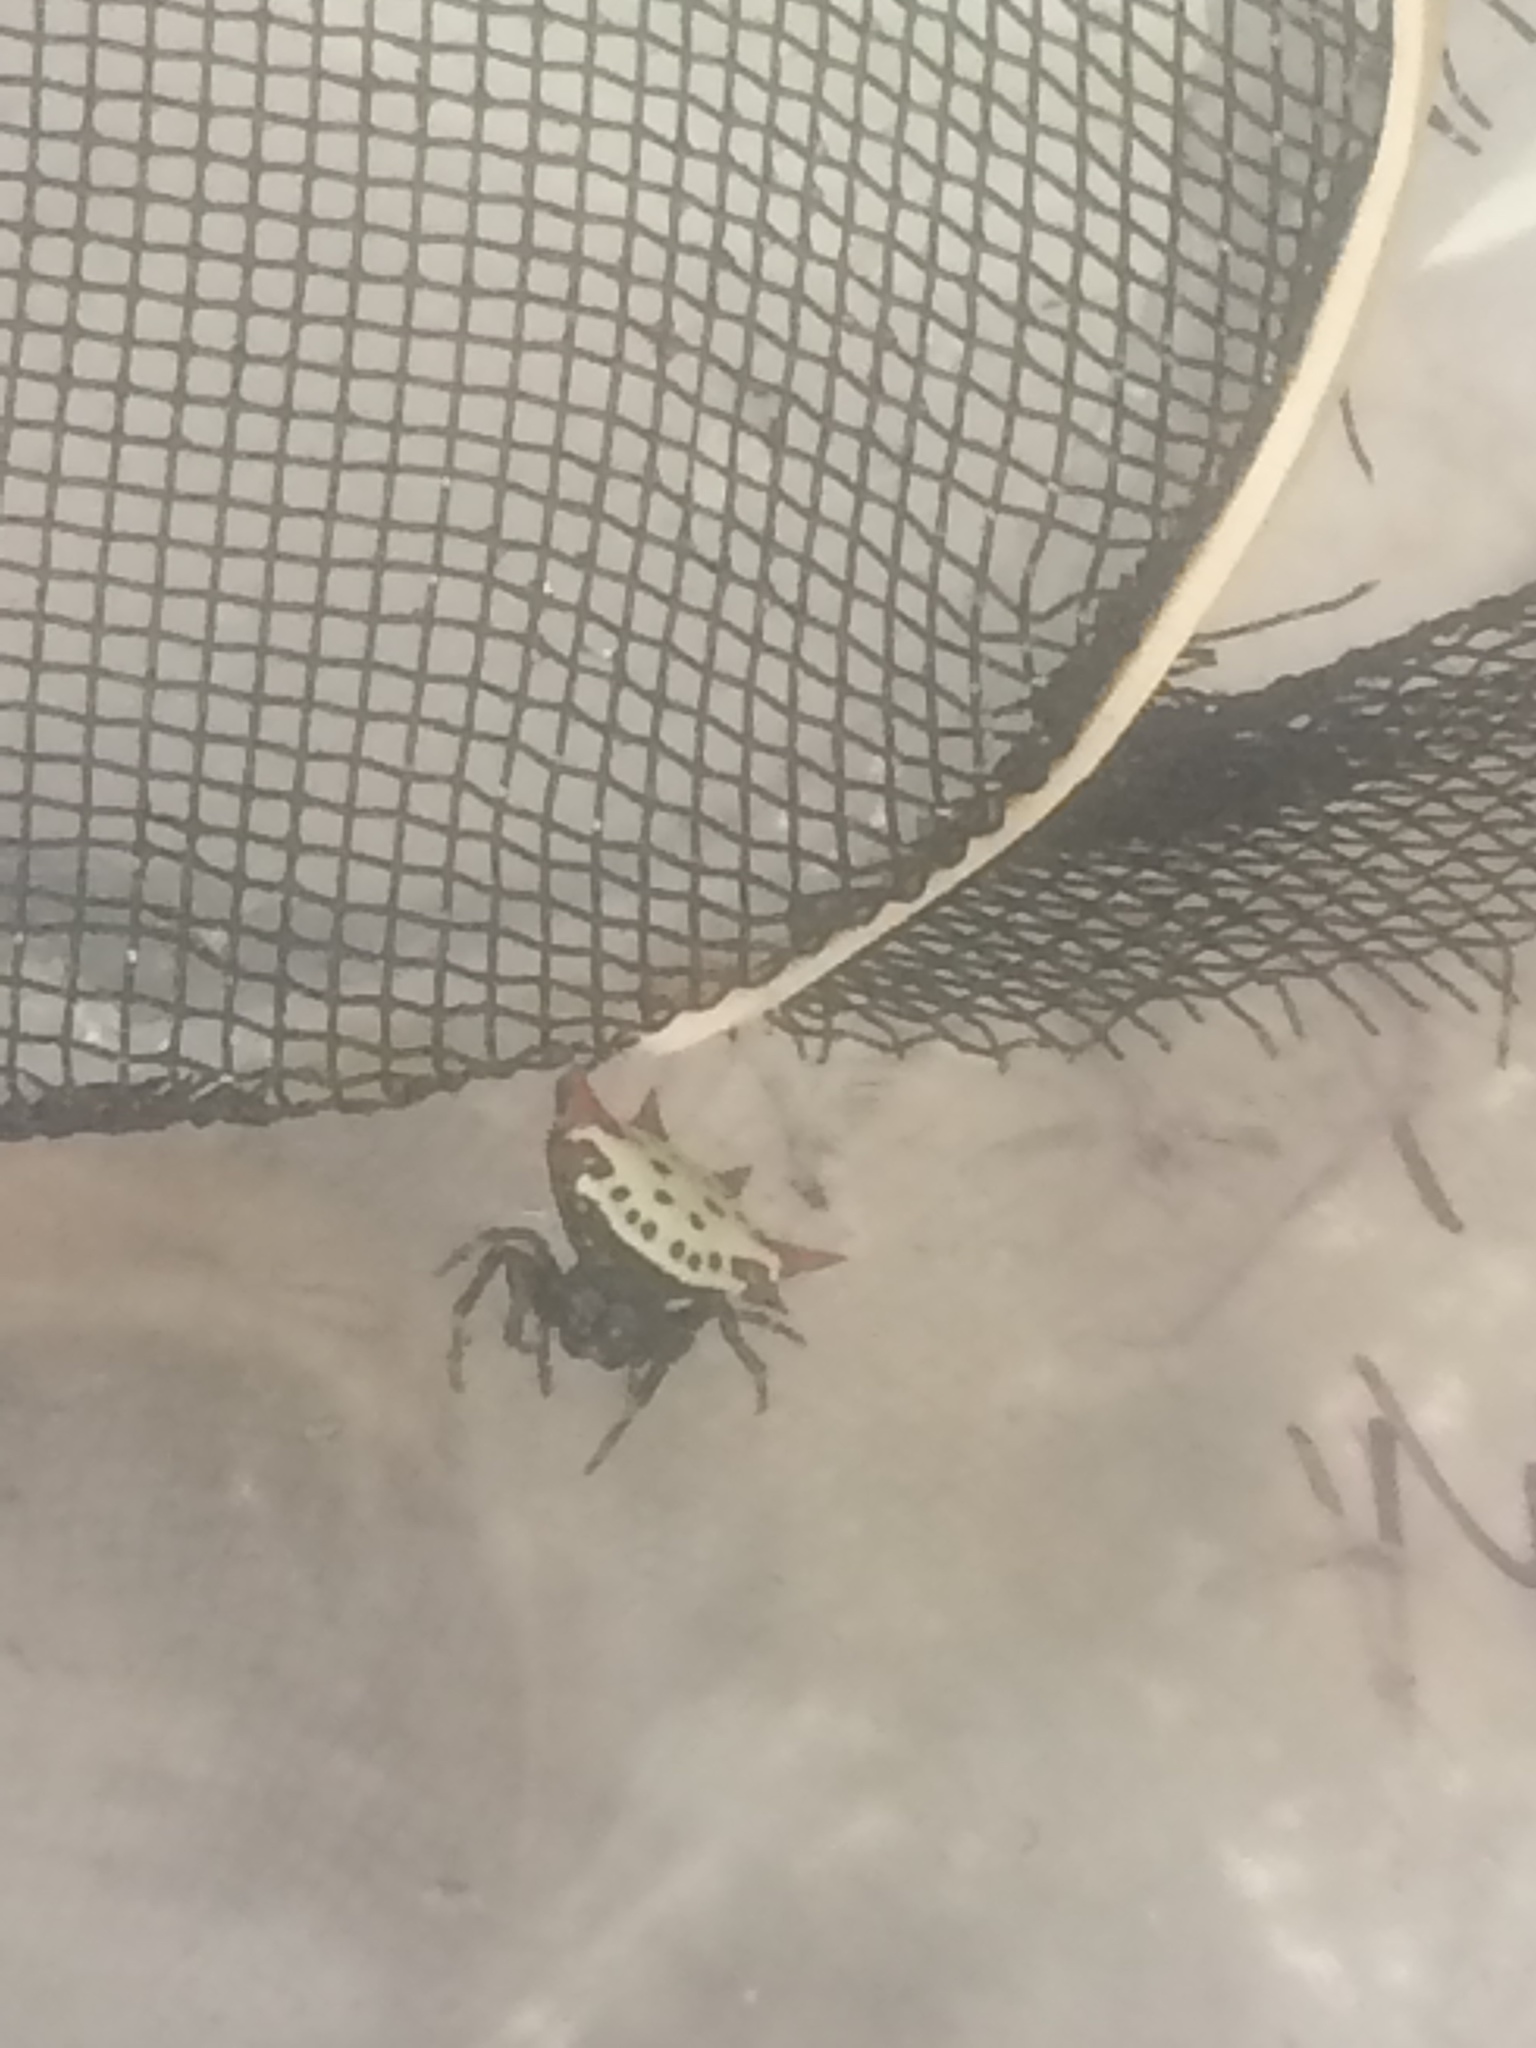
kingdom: Animalia
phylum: Arthropoda
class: Arachnida
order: Araneae
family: Araneidae
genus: Gasteracantha
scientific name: Gasteracantha cancriformis
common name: Orb weavers
